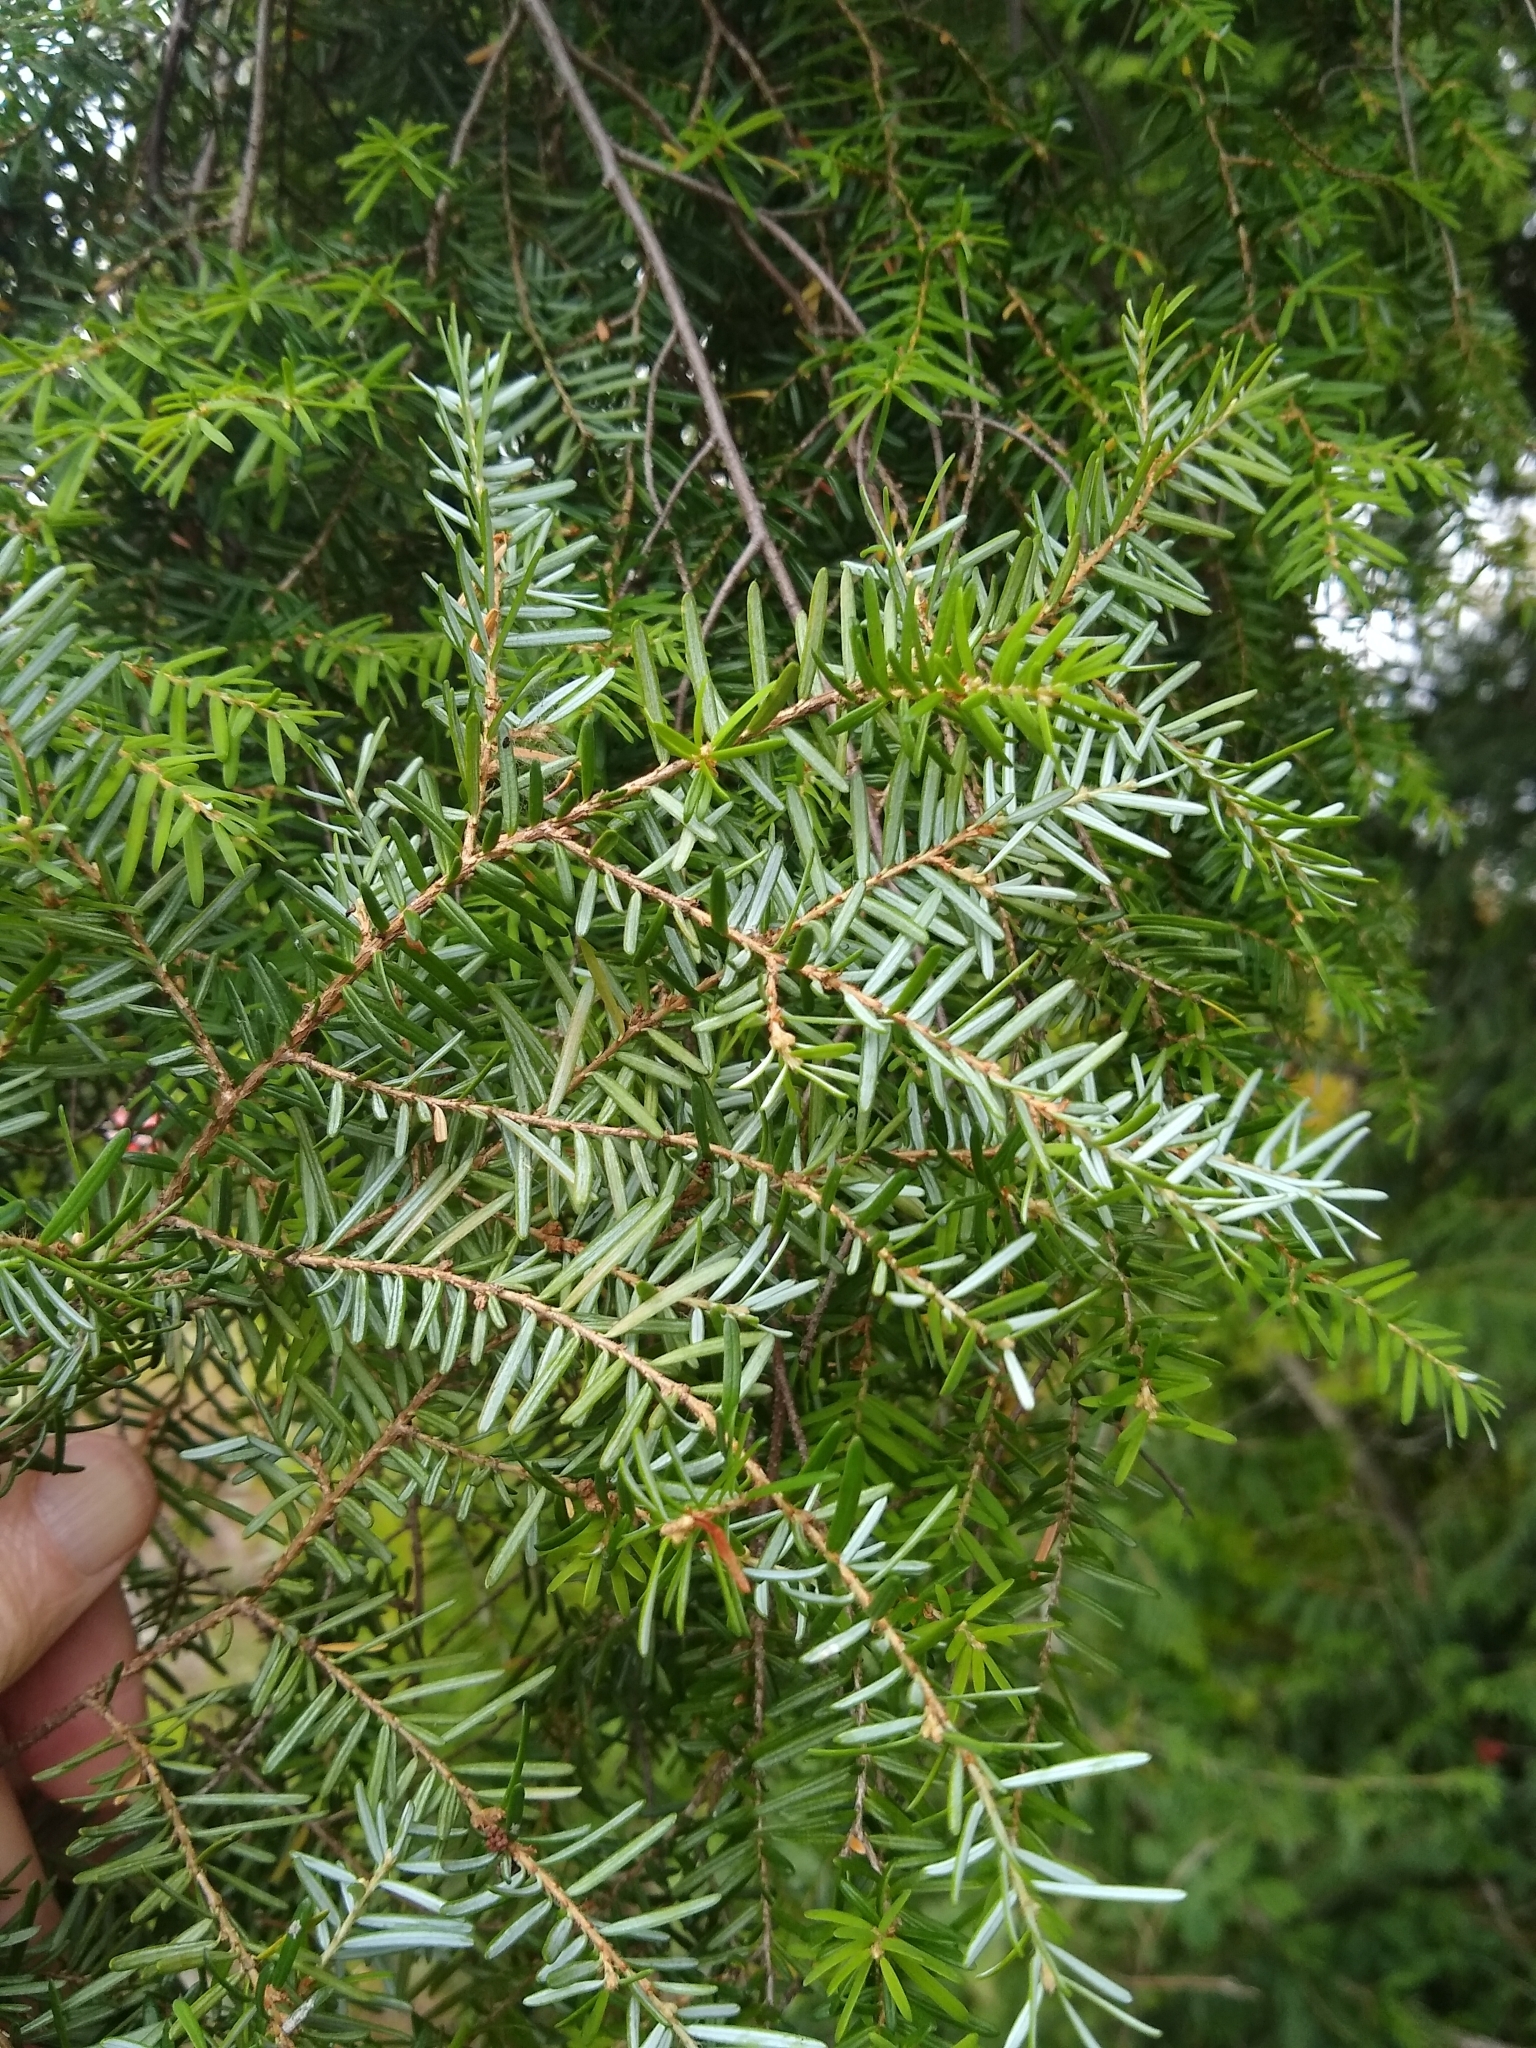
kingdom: Plantae
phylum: Tracheophyta
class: Pinopsida
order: Pinales
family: Pinaceae
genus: Tsuga
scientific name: Tsuga heterophylla
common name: Western hemlock
